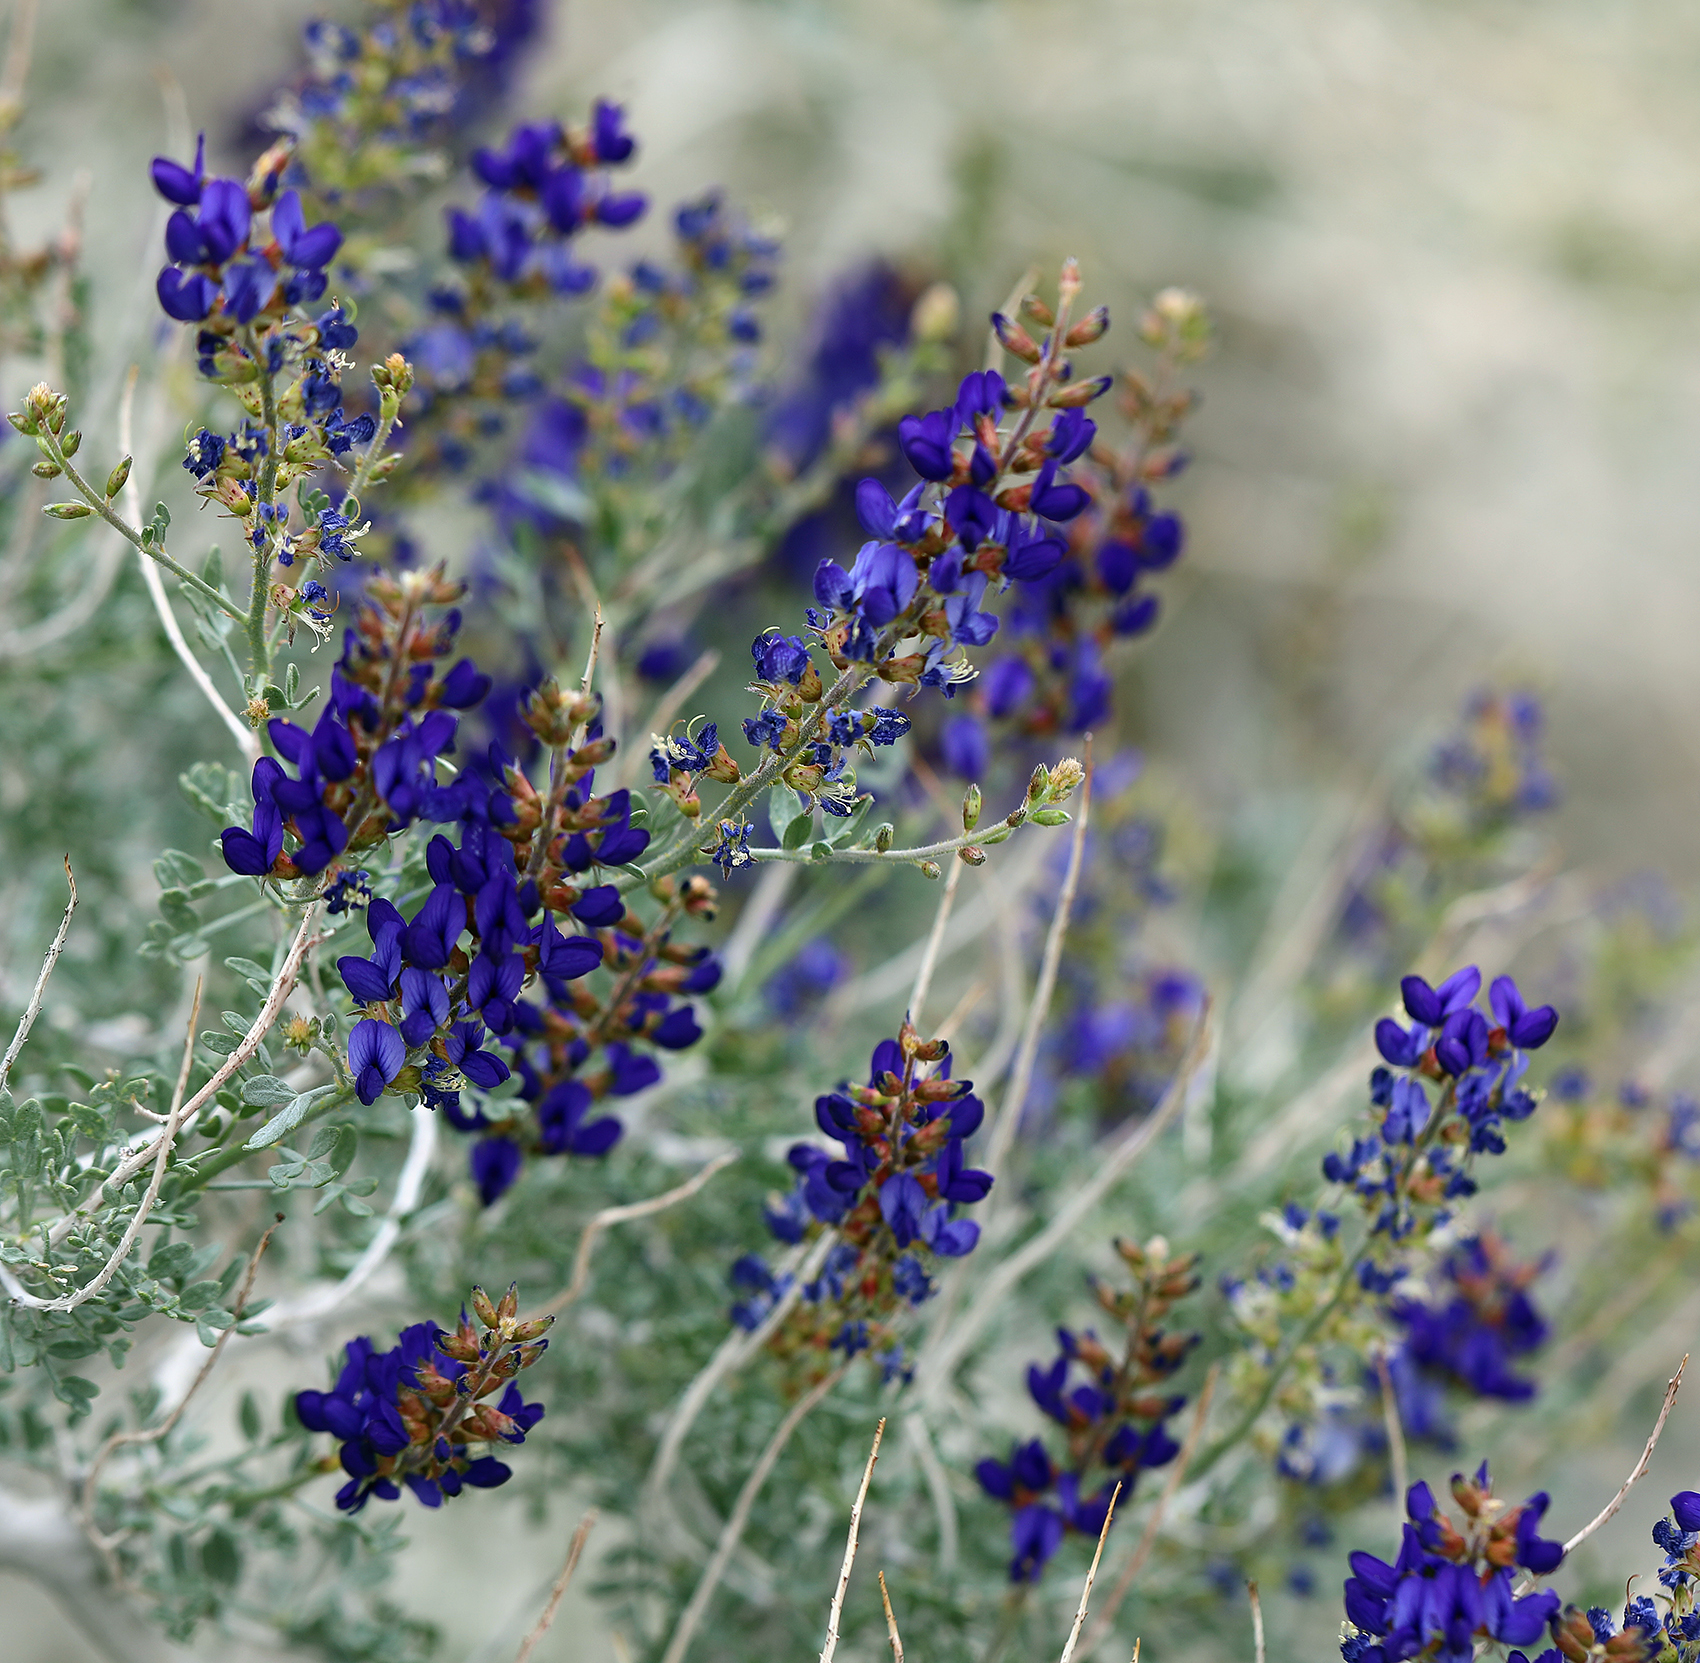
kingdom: Plantae
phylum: Tracheophyta
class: Magnoliopsida
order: Fabales
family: Fabaceae
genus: Psorothamnus
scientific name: Psorothamnus arborescens
